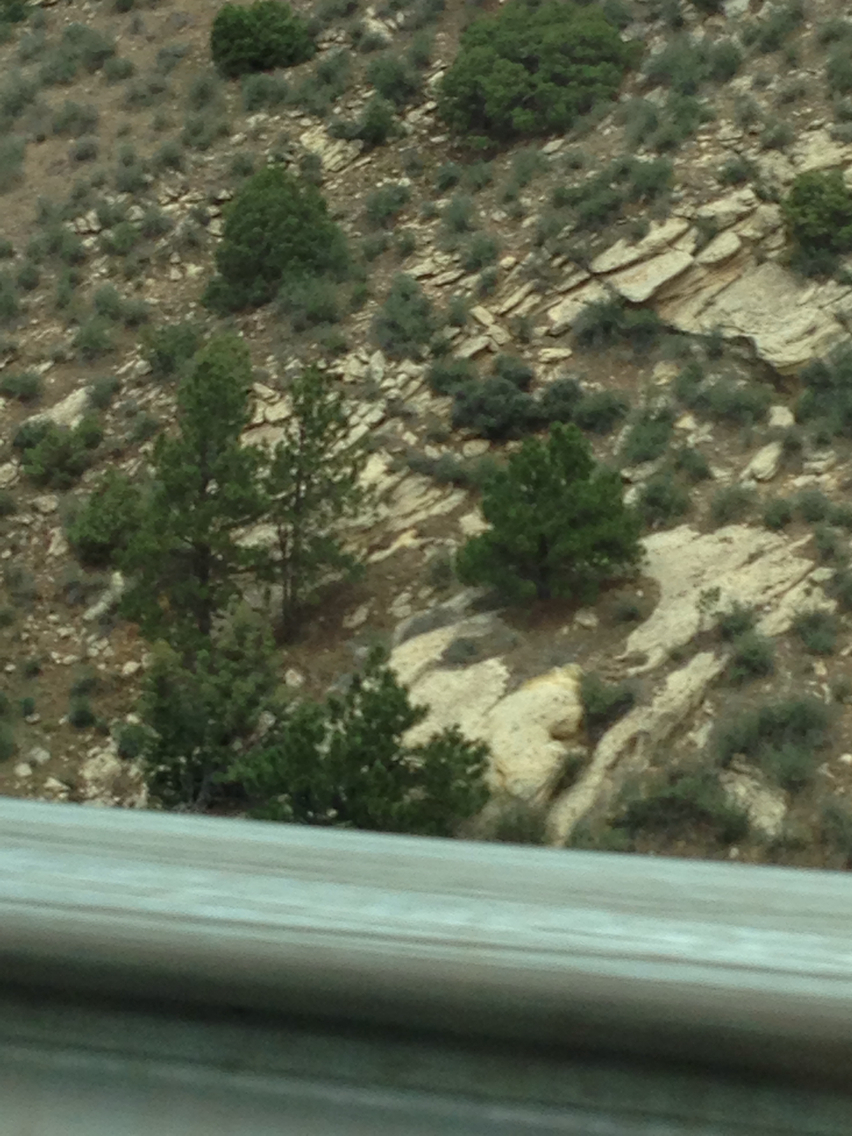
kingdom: Plantae
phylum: Tracheophyta
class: Pinopsida
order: Pinales
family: Pinaceae
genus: Pinus
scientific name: Pinus ponderosa
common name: Western yellow-pine
